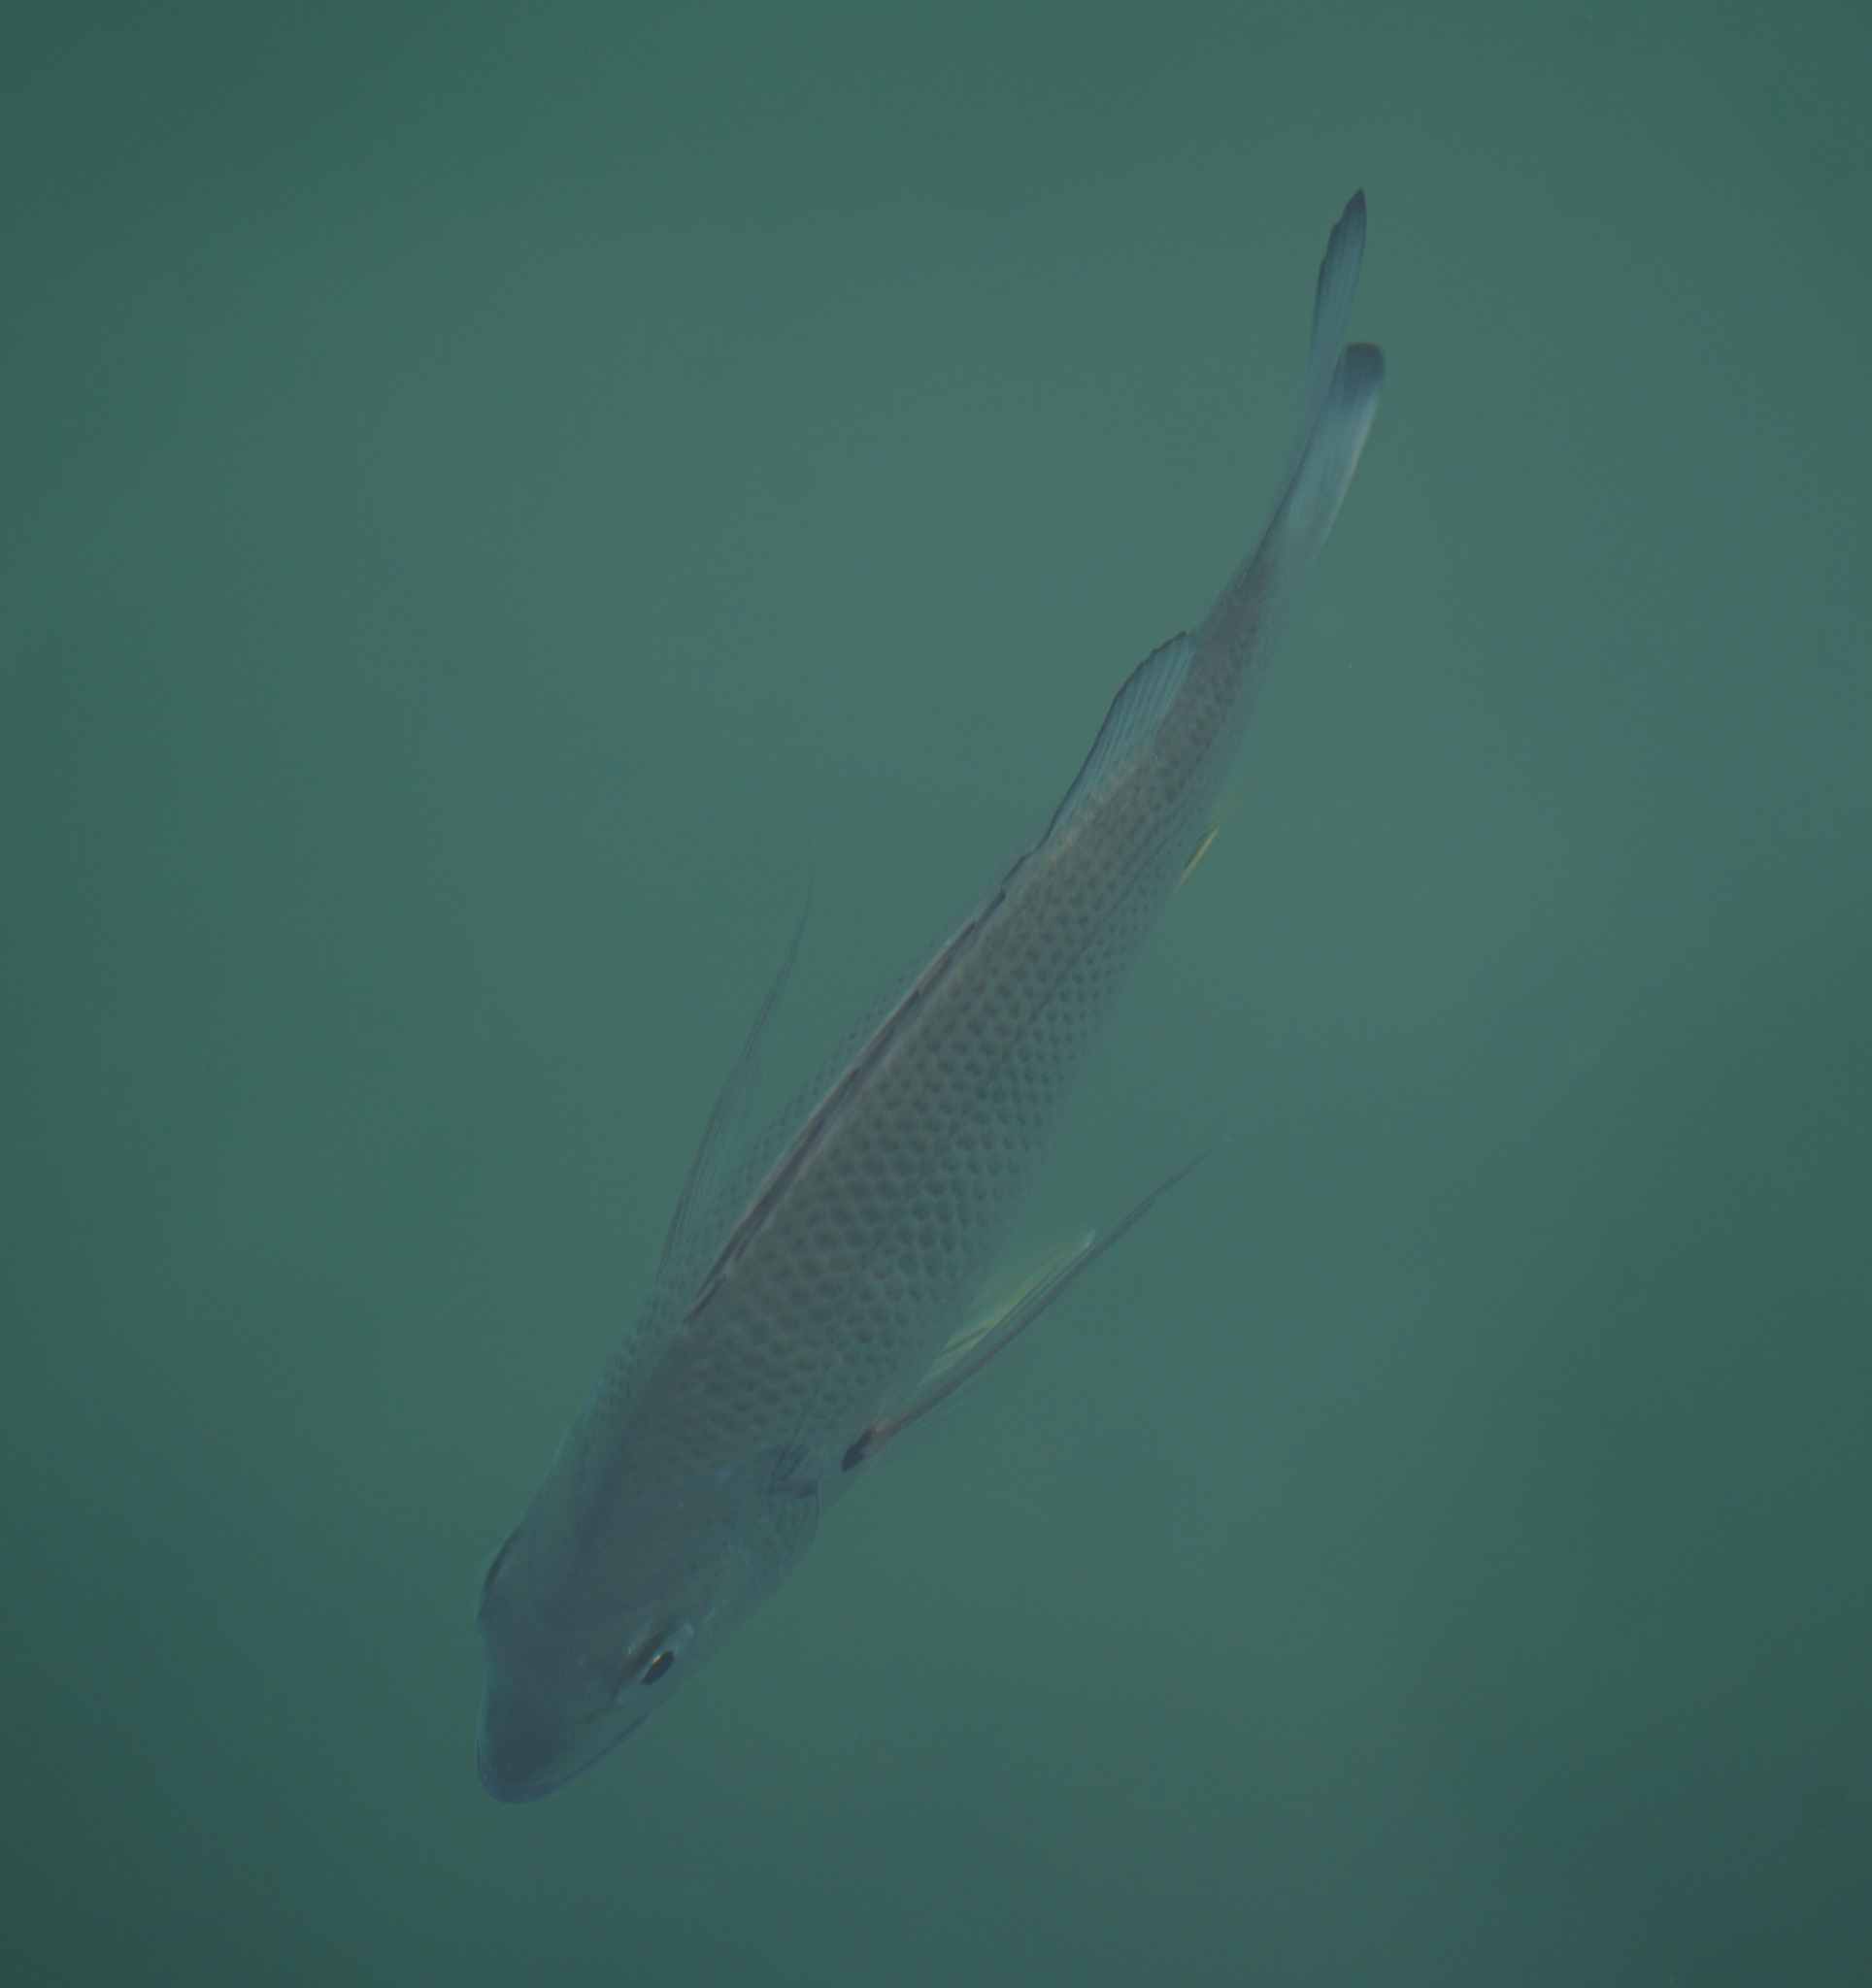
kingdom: Animalia
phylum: Chordata
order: Perciformes
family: Sparidae
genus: Acanthopagrus
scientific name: Acanthopagrus australis
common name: Surf bream
